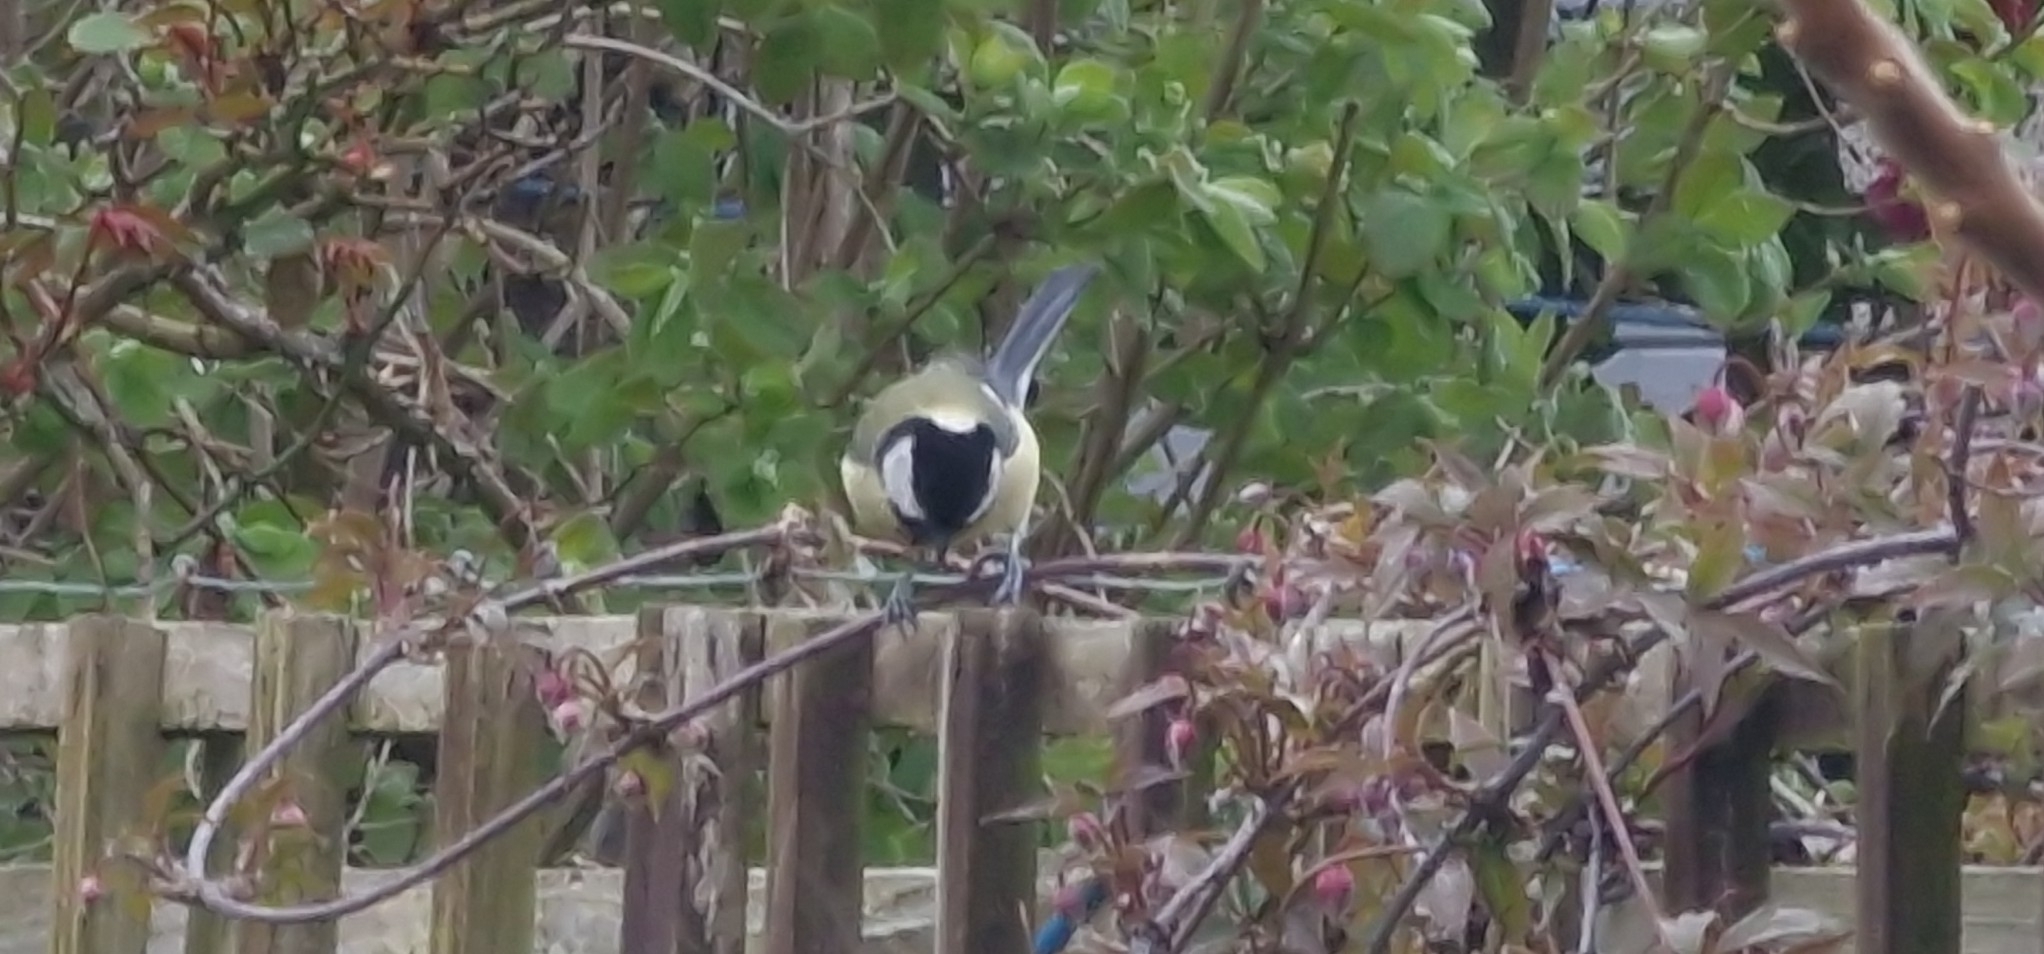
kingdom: Animalia
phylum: Chordata
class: Aves
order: Passeriformes
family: Paridae
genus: Parus
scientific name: Parus major
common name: Great tit
